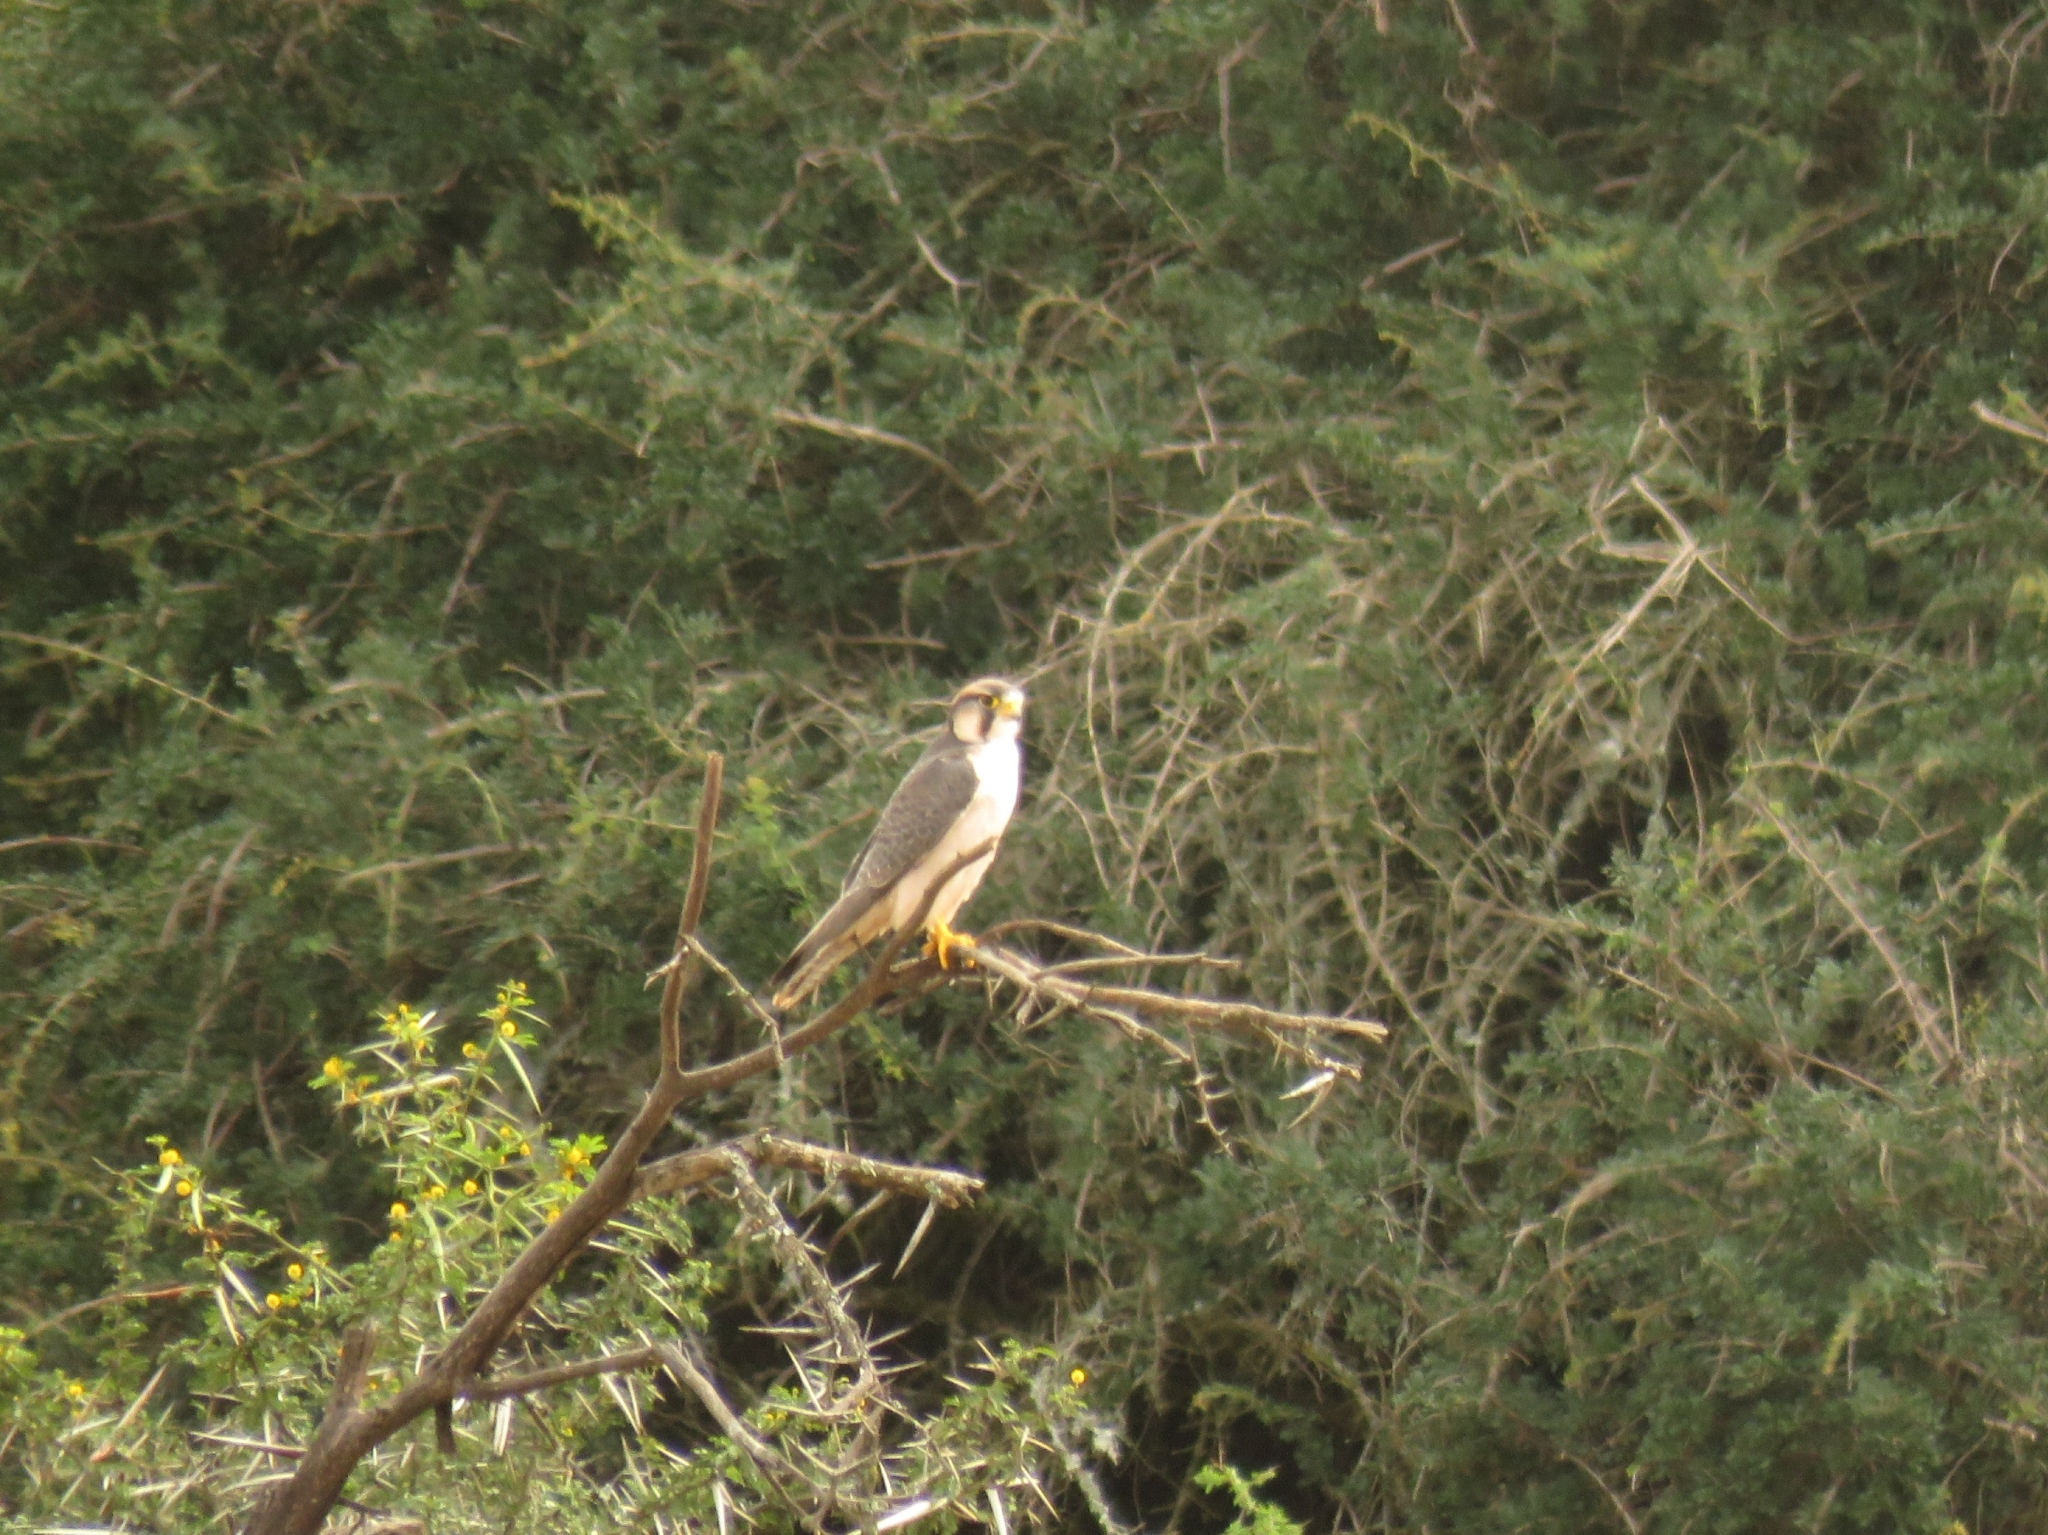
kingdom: Animalia
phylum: Chordata
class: Aves
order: Falconiformes
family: Falconidae
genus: Falco
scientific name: Falco biarmicus
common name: Lanner falcon
